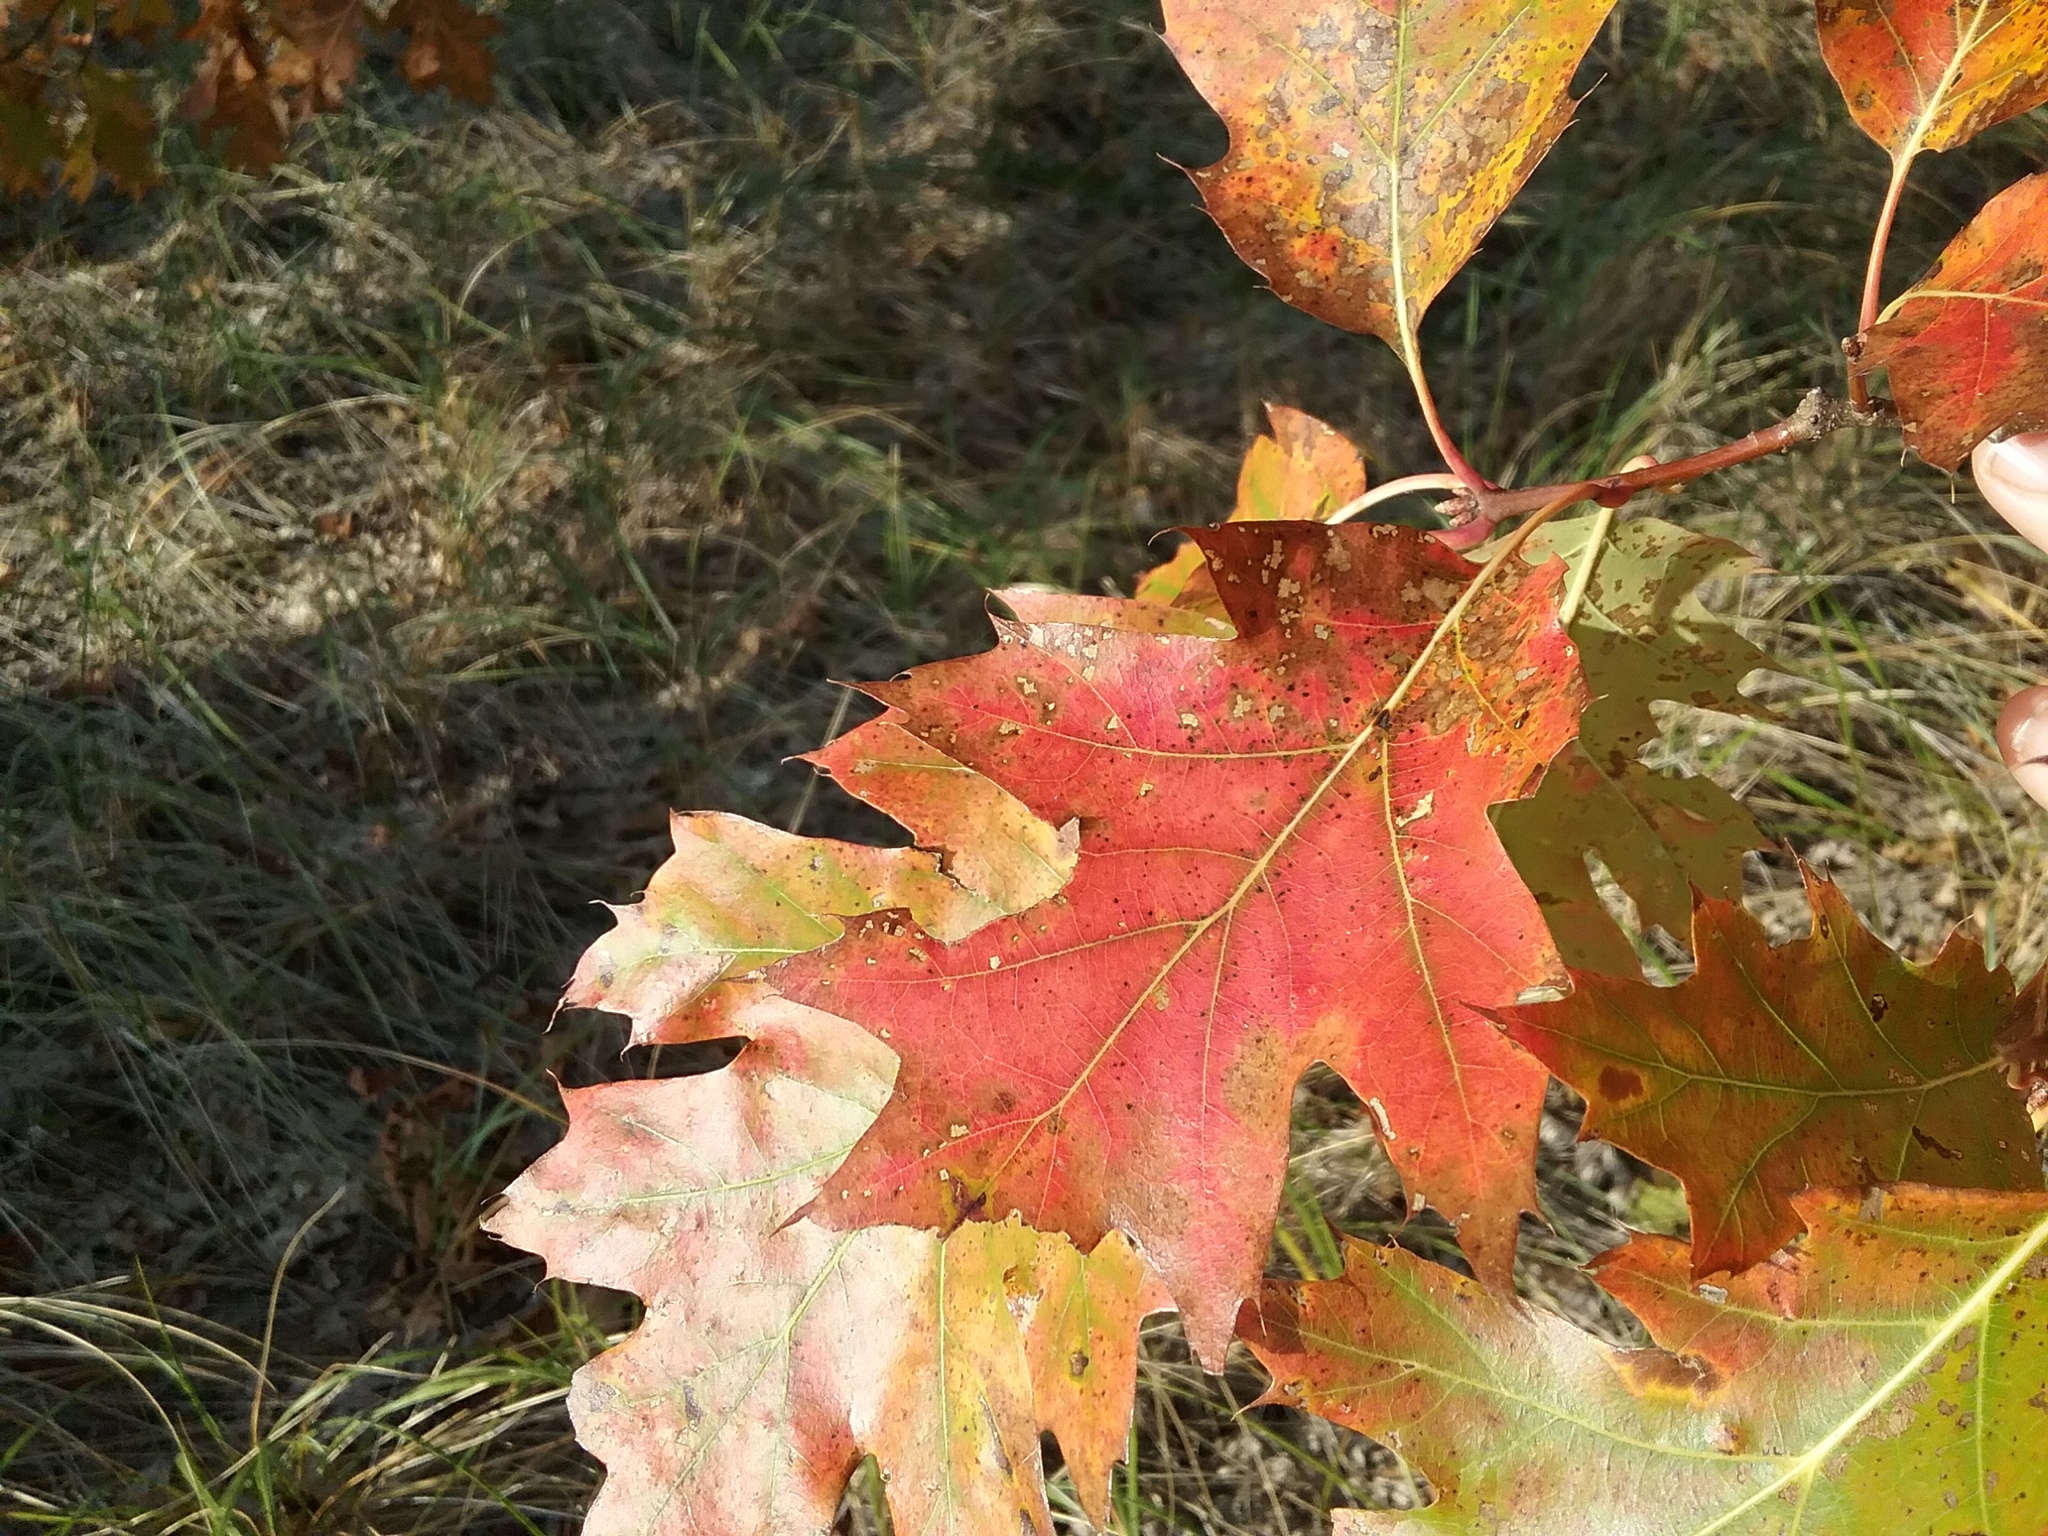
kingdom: Plantae
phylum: Tracheophyta
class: Magnoliopsida
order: Fagales
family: Fagaceae
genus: Quercus
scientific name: Quercus rubra
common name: Red oak
